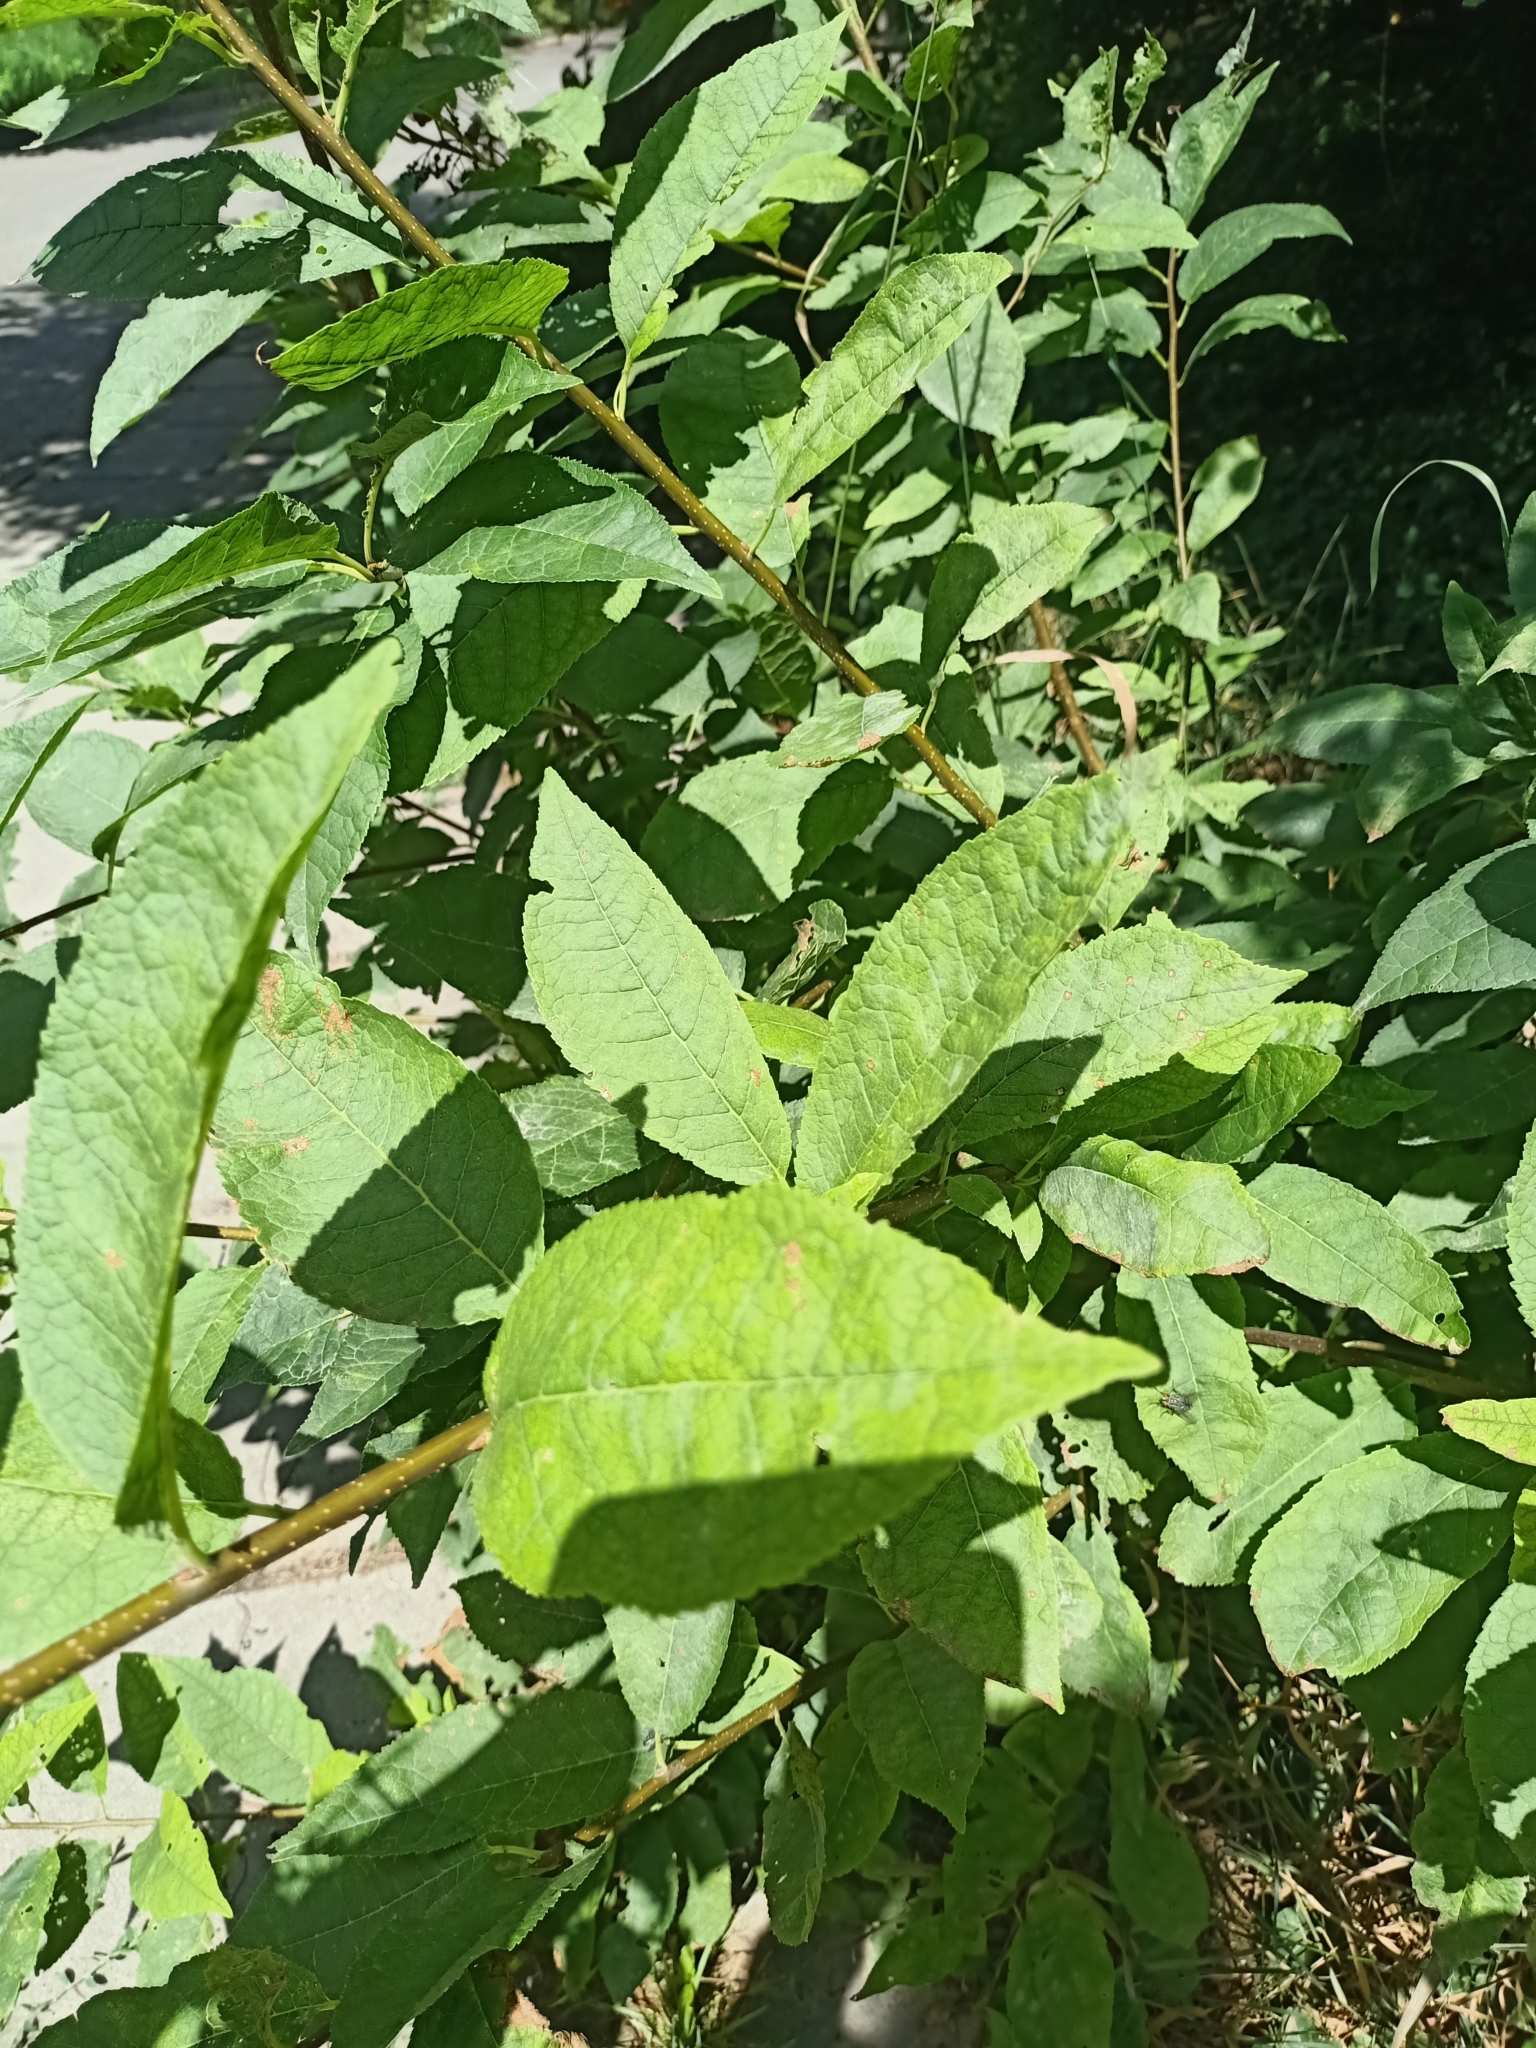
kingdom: Plantae
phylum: Tracheophyta
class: Magnoliopsida
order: Rosales
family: Rosaceae
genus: Prunus
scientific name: Prunus padus
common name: Bird cherry
